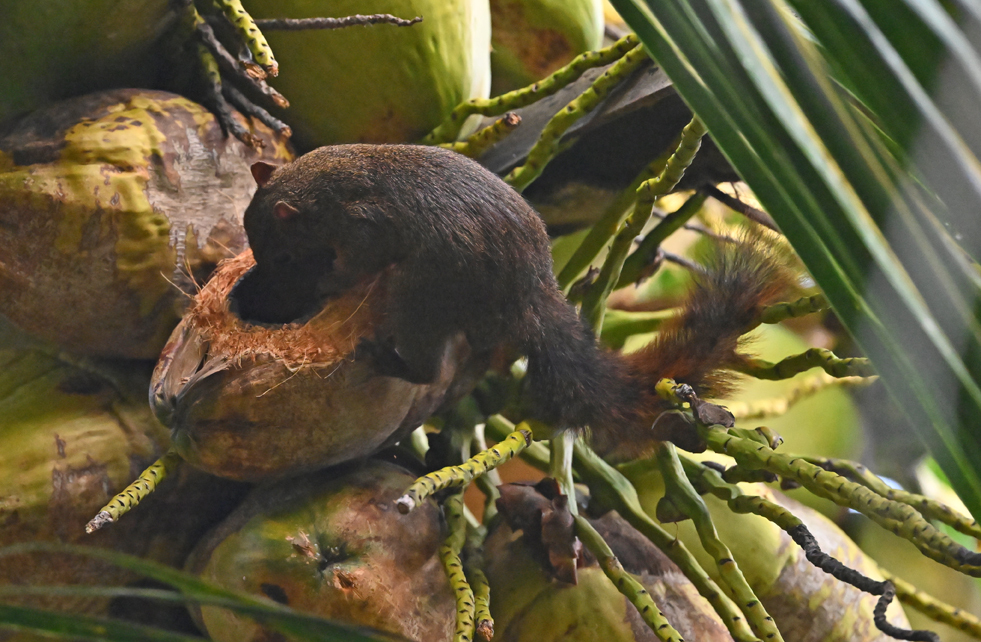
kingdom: Animalia
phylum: Chordata
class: Mammalia
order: Rodentia
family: Sciuridae
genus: Sciurus
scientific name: Sciurus granatensis
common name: Red-tailed squirrel
